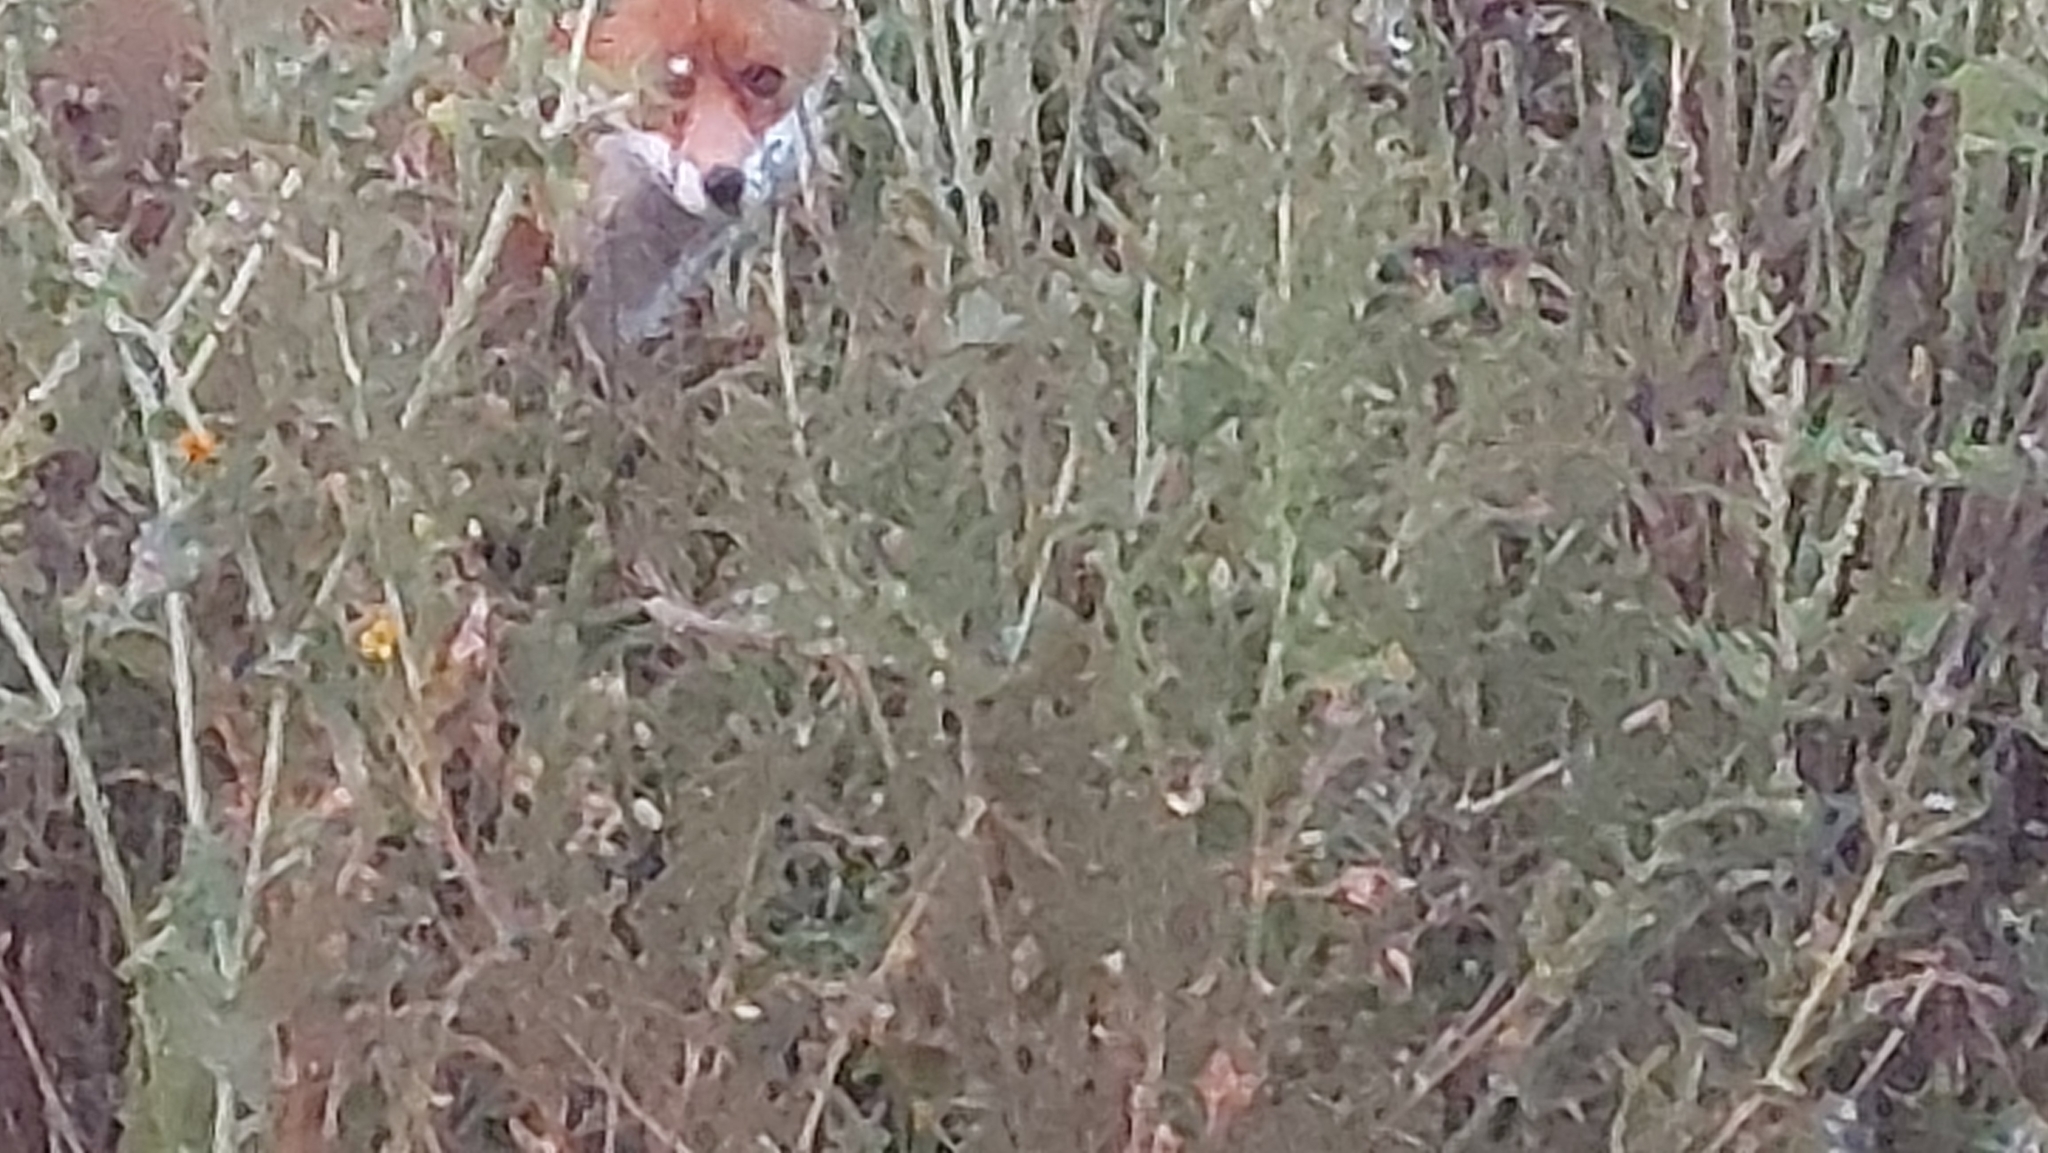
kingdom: Animalia
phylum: Chordata
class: Mammalia
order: Carnivora
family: Canidae
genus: Vulpes
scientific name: Vulpes vulpes
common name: Red fox
